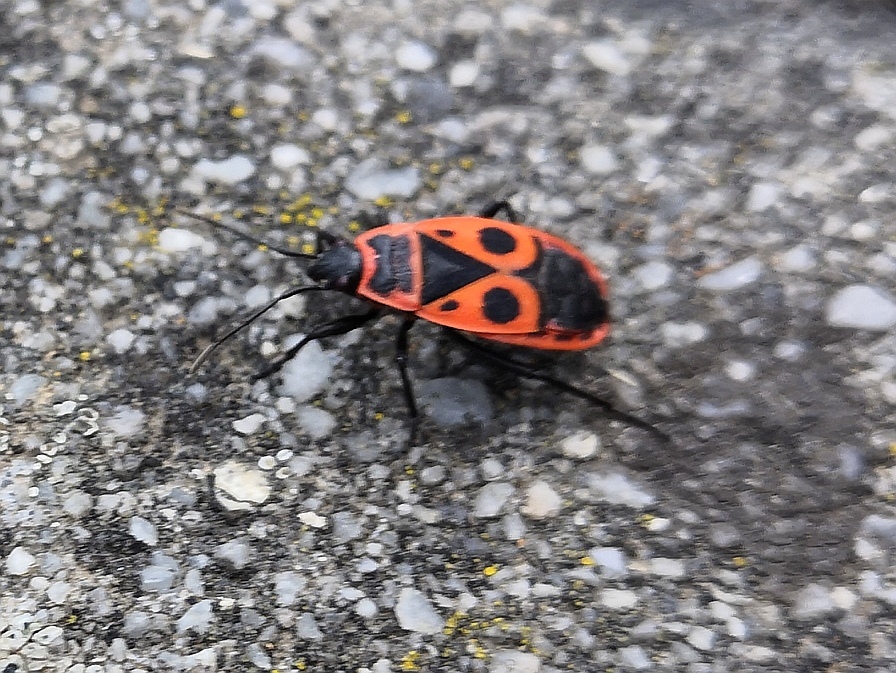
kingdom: Animalia
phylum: Arthropoda
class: Insecta
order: Hemiptera
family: Pyrrhocoridae
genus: Pyrrhocoris
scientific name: Pyrrhocoris apterus
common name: Firebug
